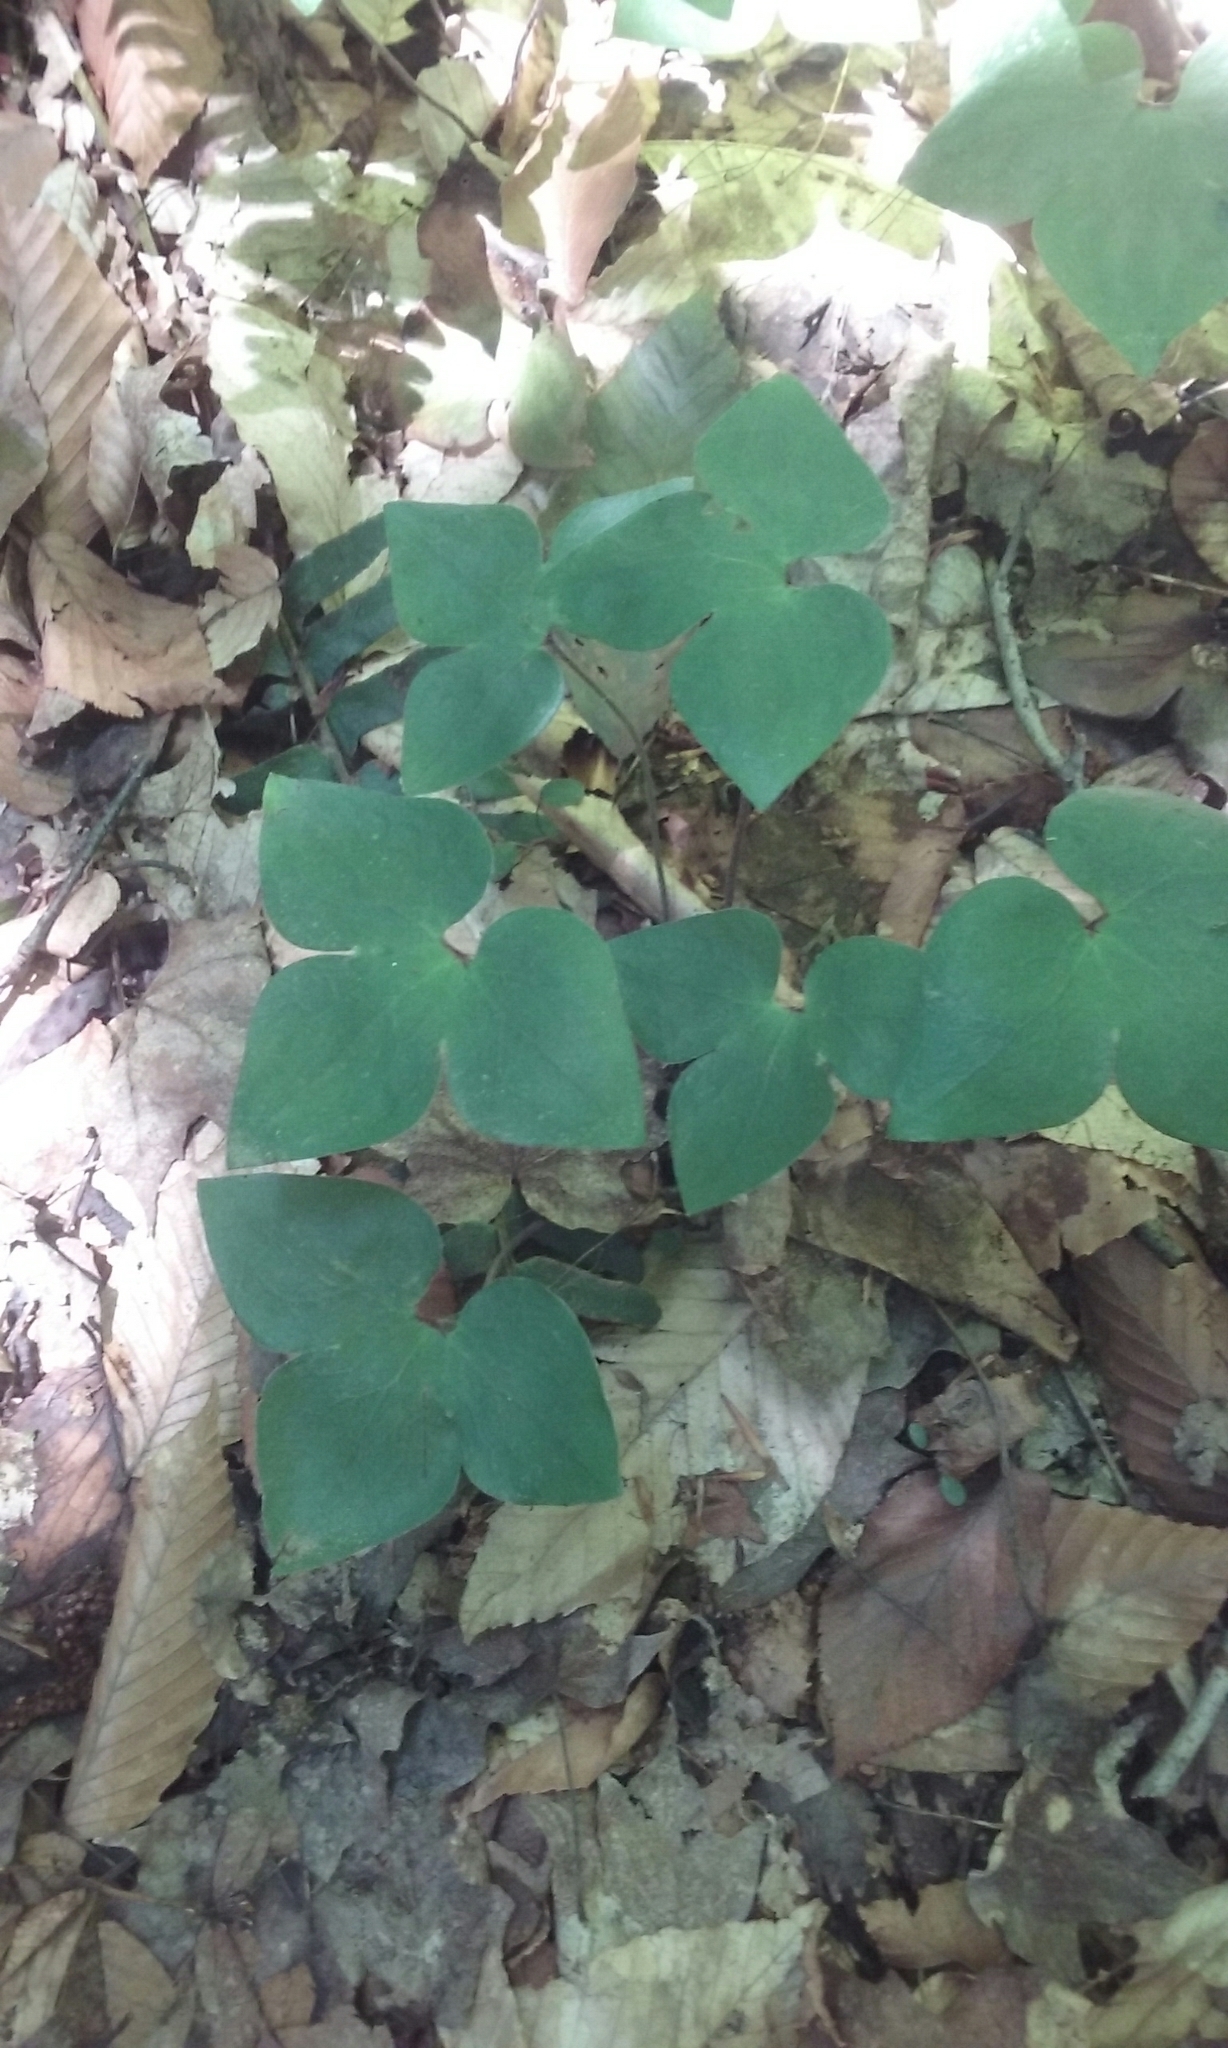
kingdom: Plantae
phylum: Tracheophyta
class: Magnoliopsida
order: Ranunculales
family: Ranunculaceae
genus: Hepatica
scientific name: Hepatica acutiloba
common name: Sharp-lobed hepatica
